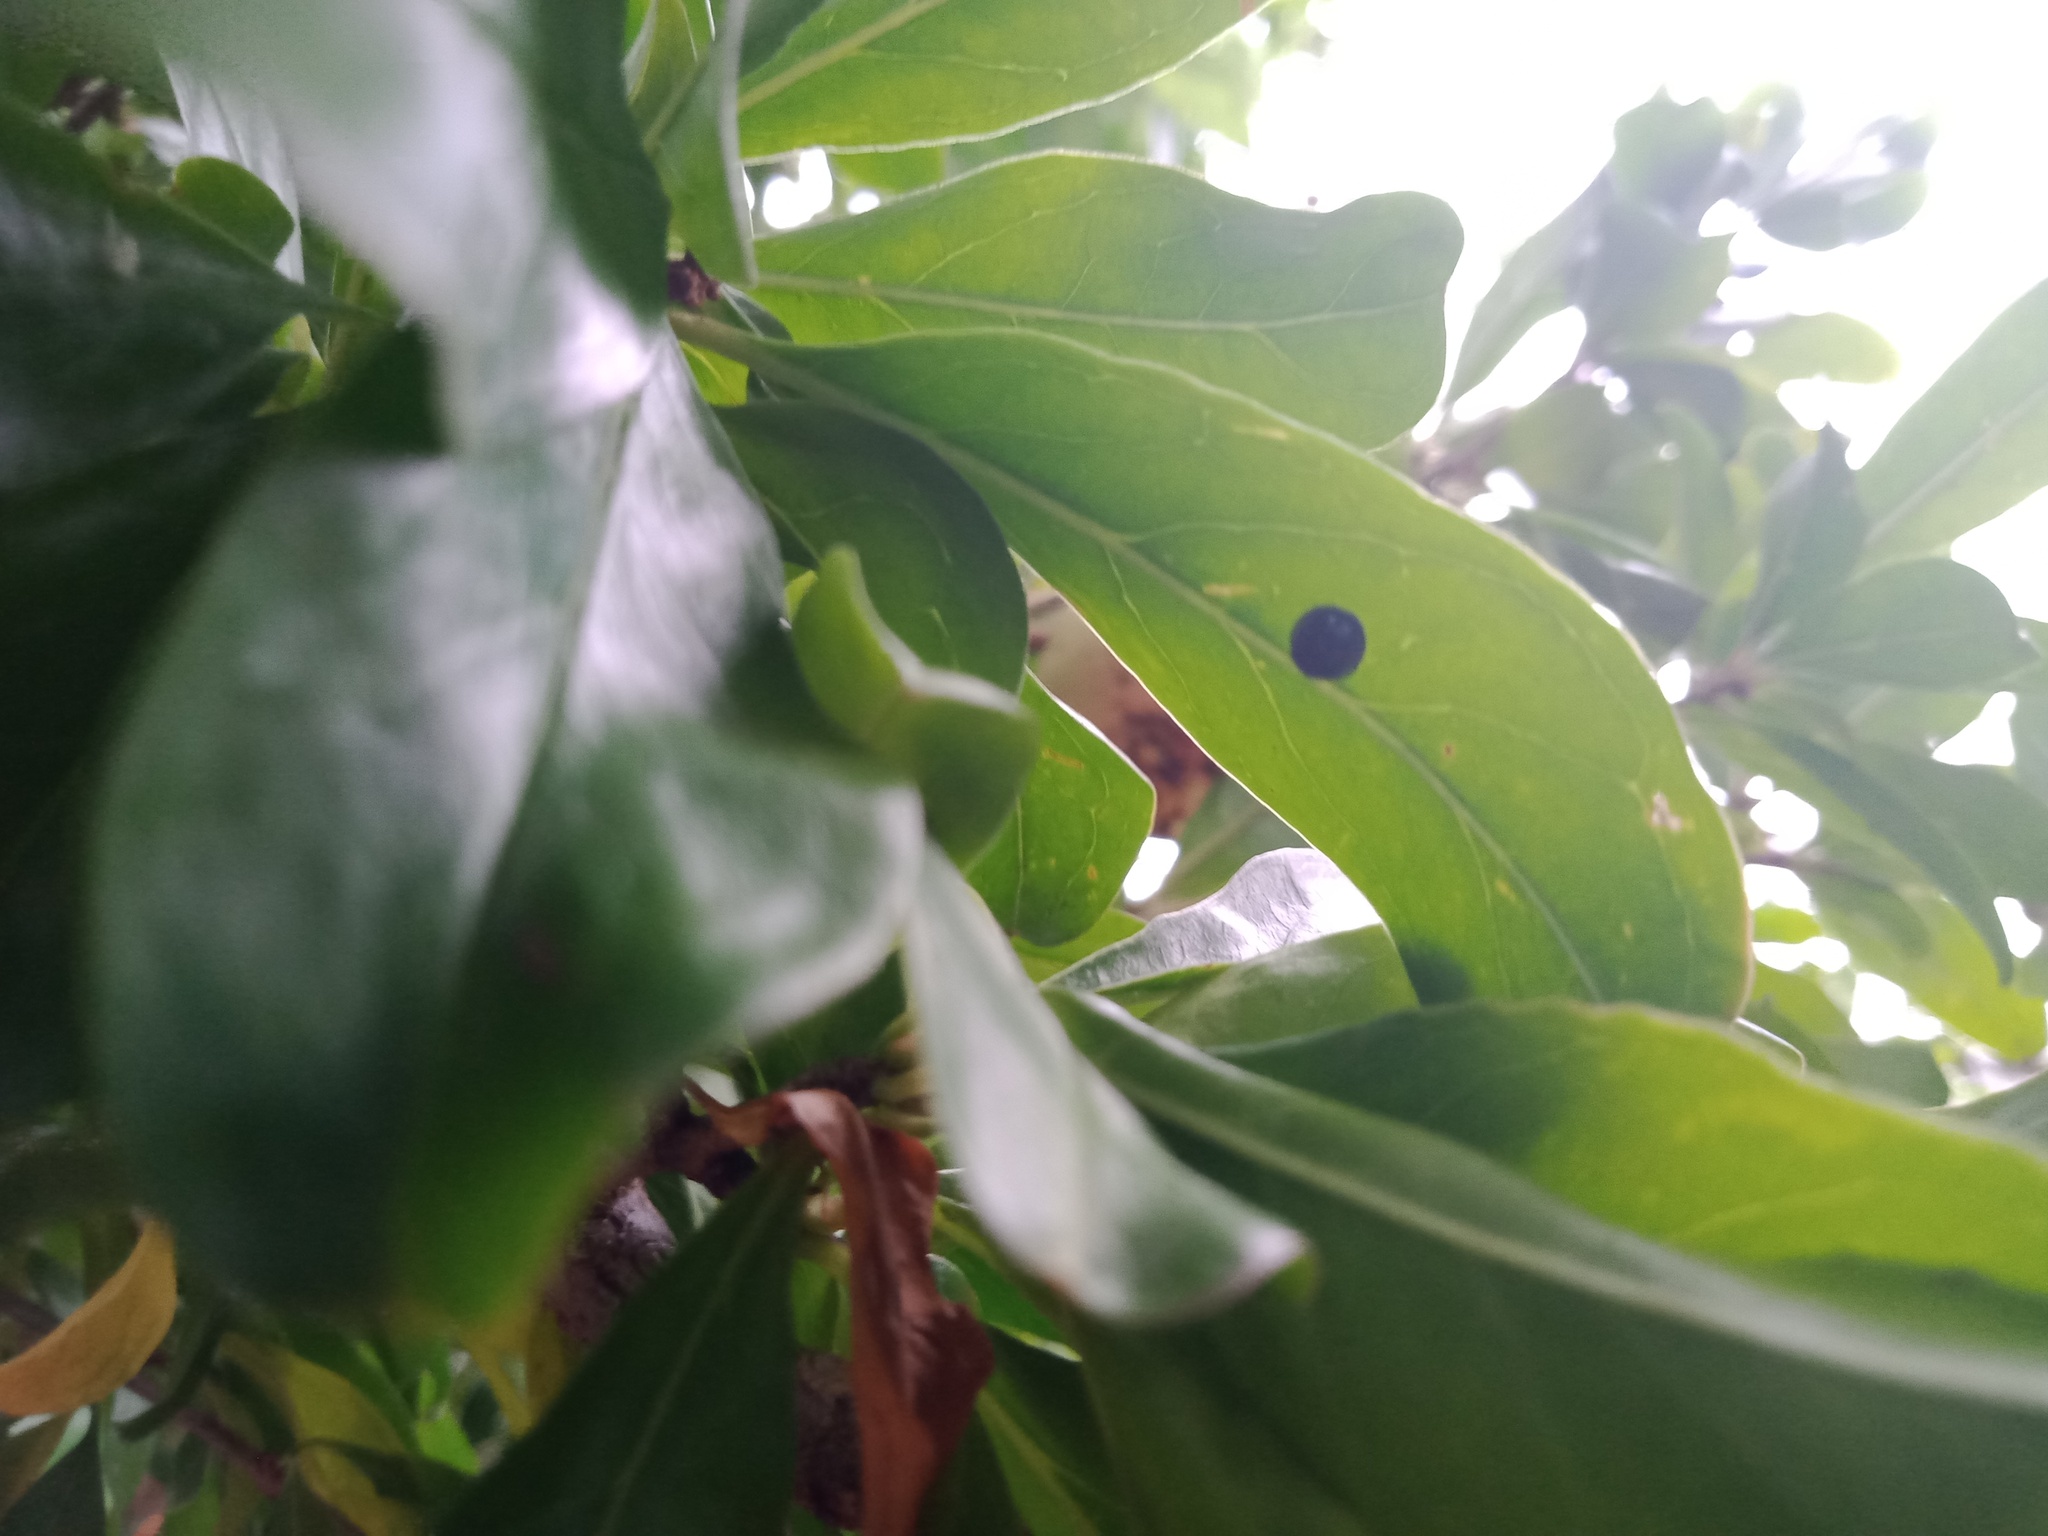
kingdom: Animalia
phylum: Arthropoda
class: Insecta
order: Coleoptera
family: Coccinellidae
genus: Halmus
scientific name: Halmus chalybeus
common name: Steel blue ladybird beetle
